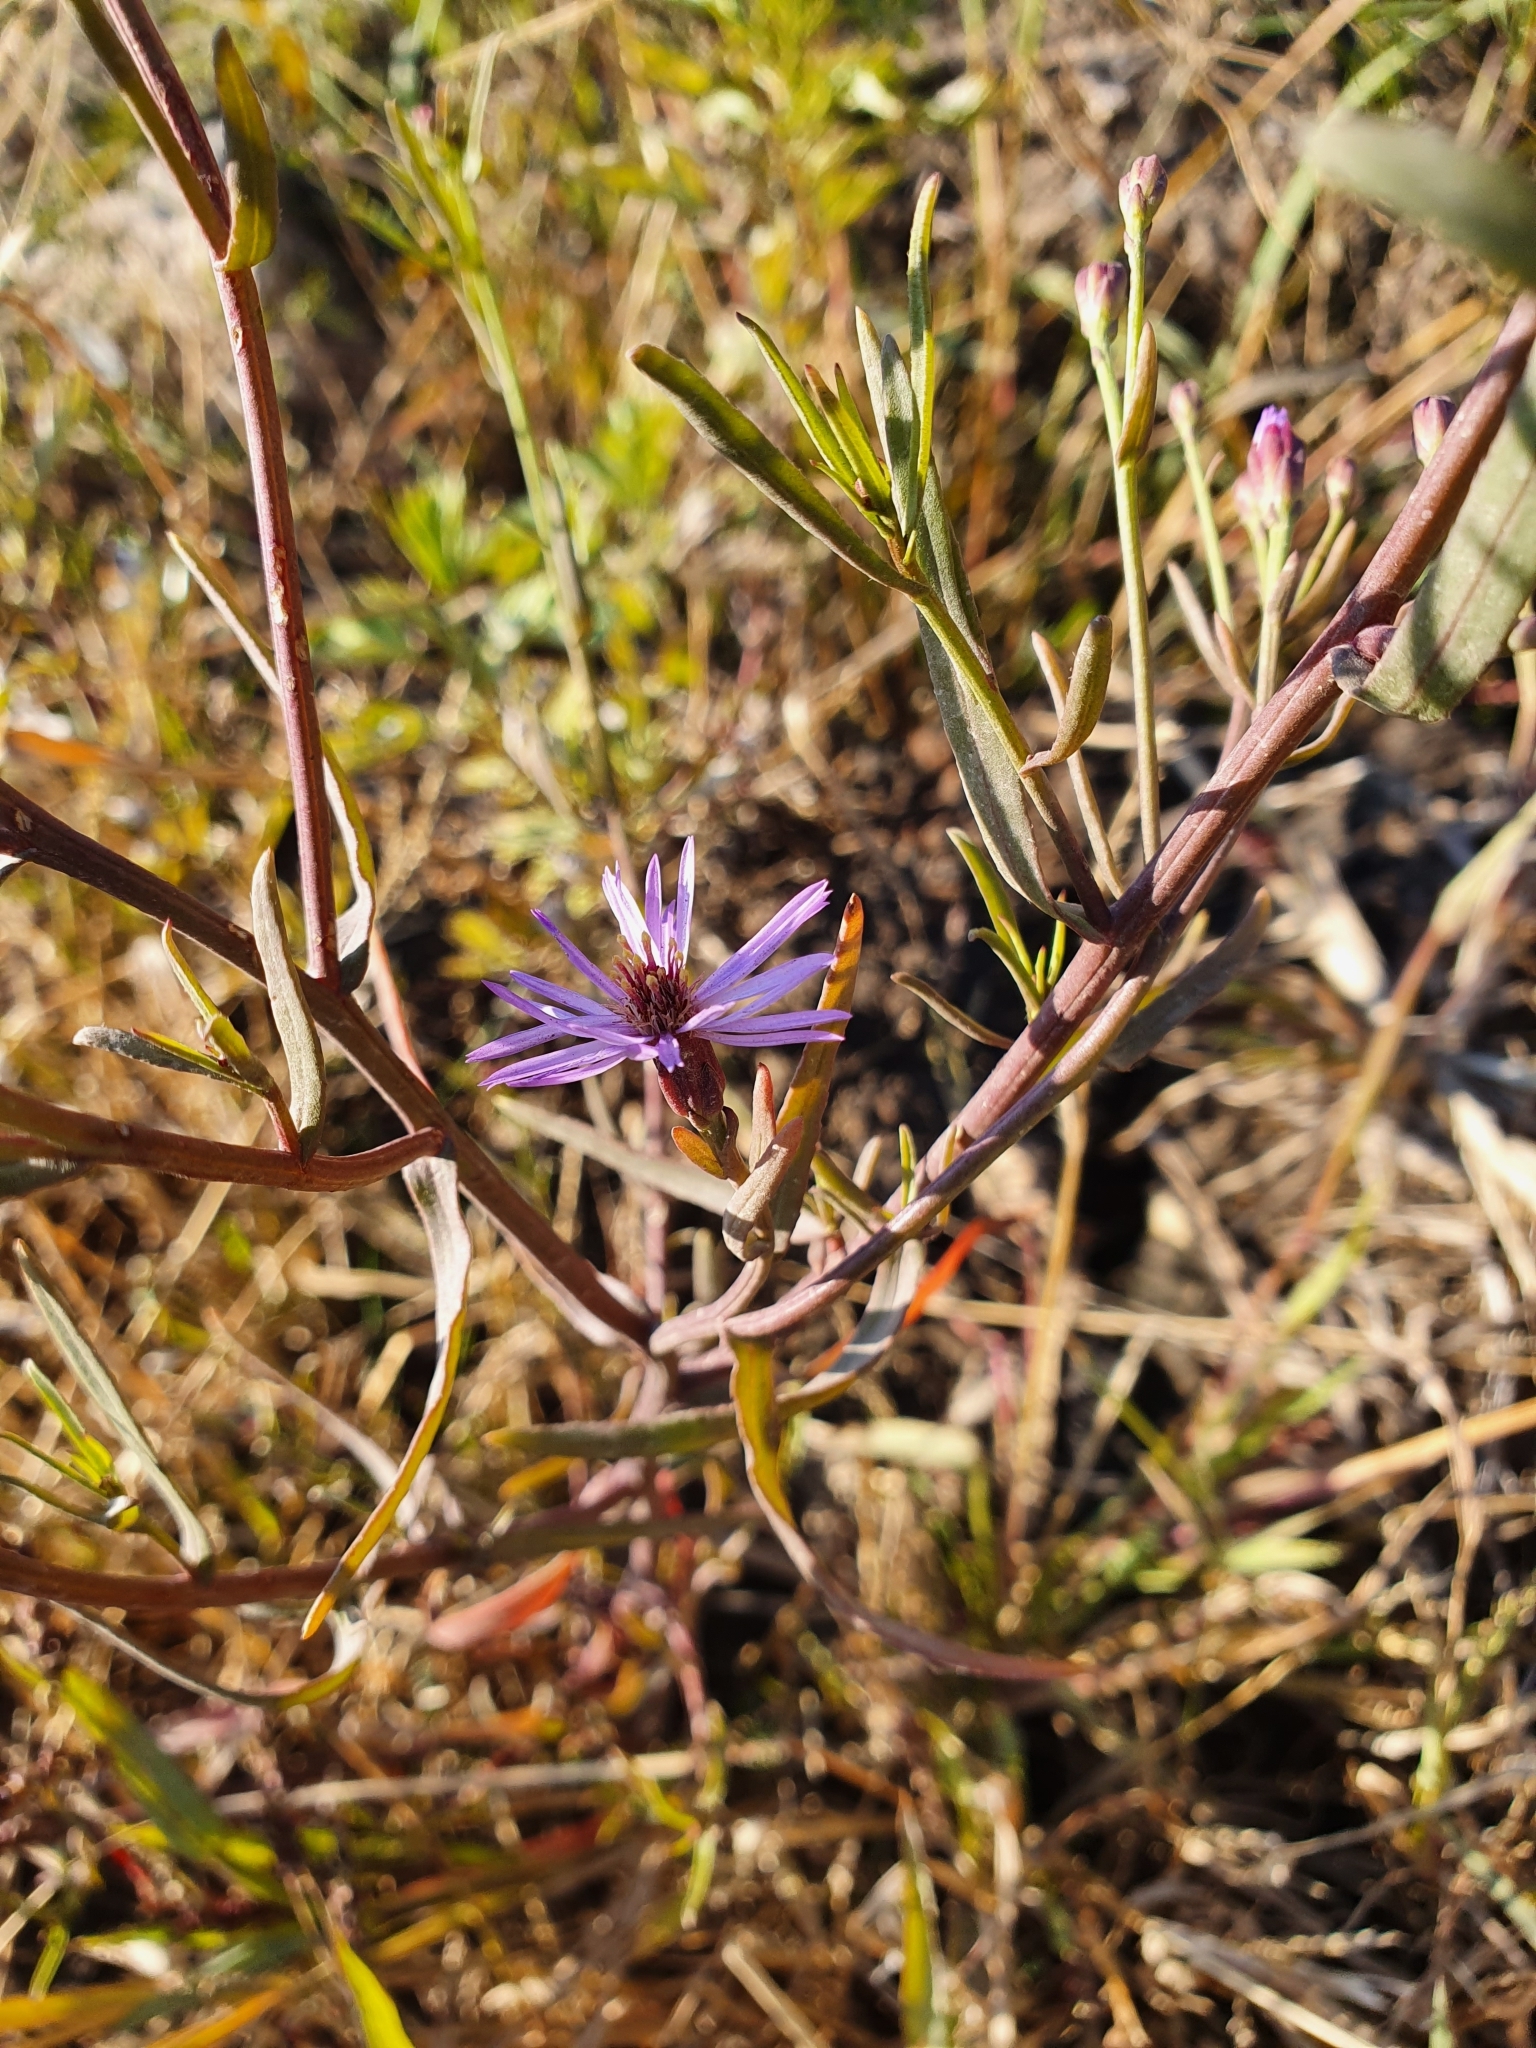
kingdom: Plantae
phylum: Tracheophyta
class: Magnoliopsida
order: Asterales
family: Asteraceae
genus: Tripolium
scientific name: Tripolium pannonicum
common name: Sea aster
